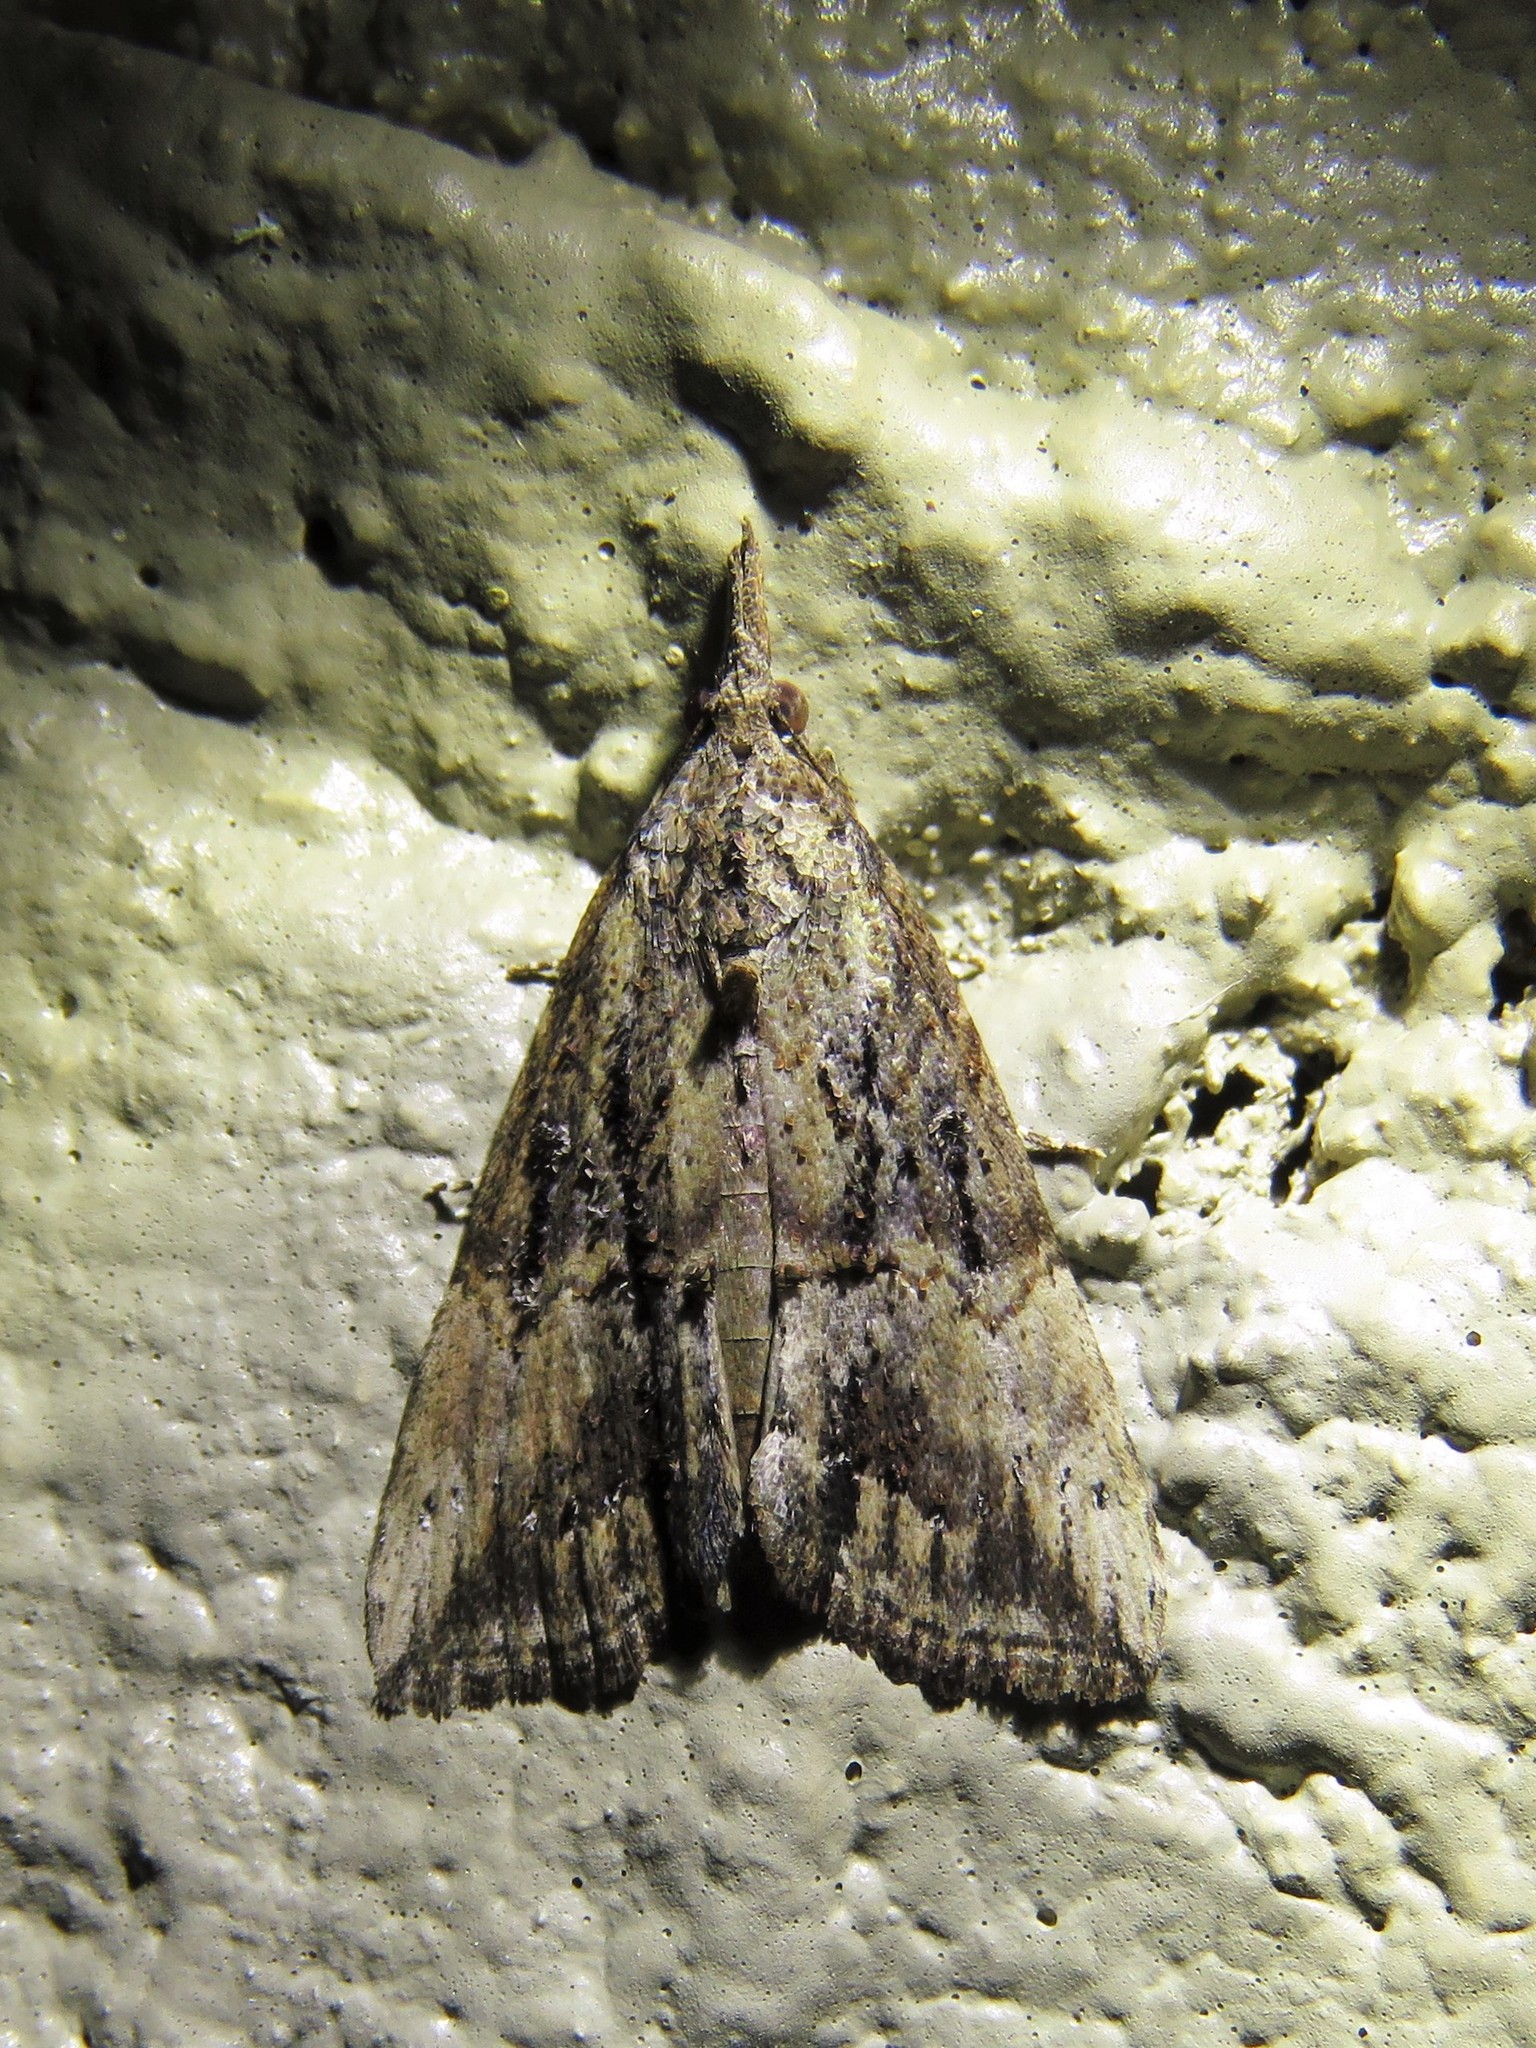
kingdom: Animalia
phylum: Arthropoda
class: Insecta
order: Lepidoptera
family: Erebidae
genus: Hypena
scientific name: Hypena scabra
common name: Green cloverworm
